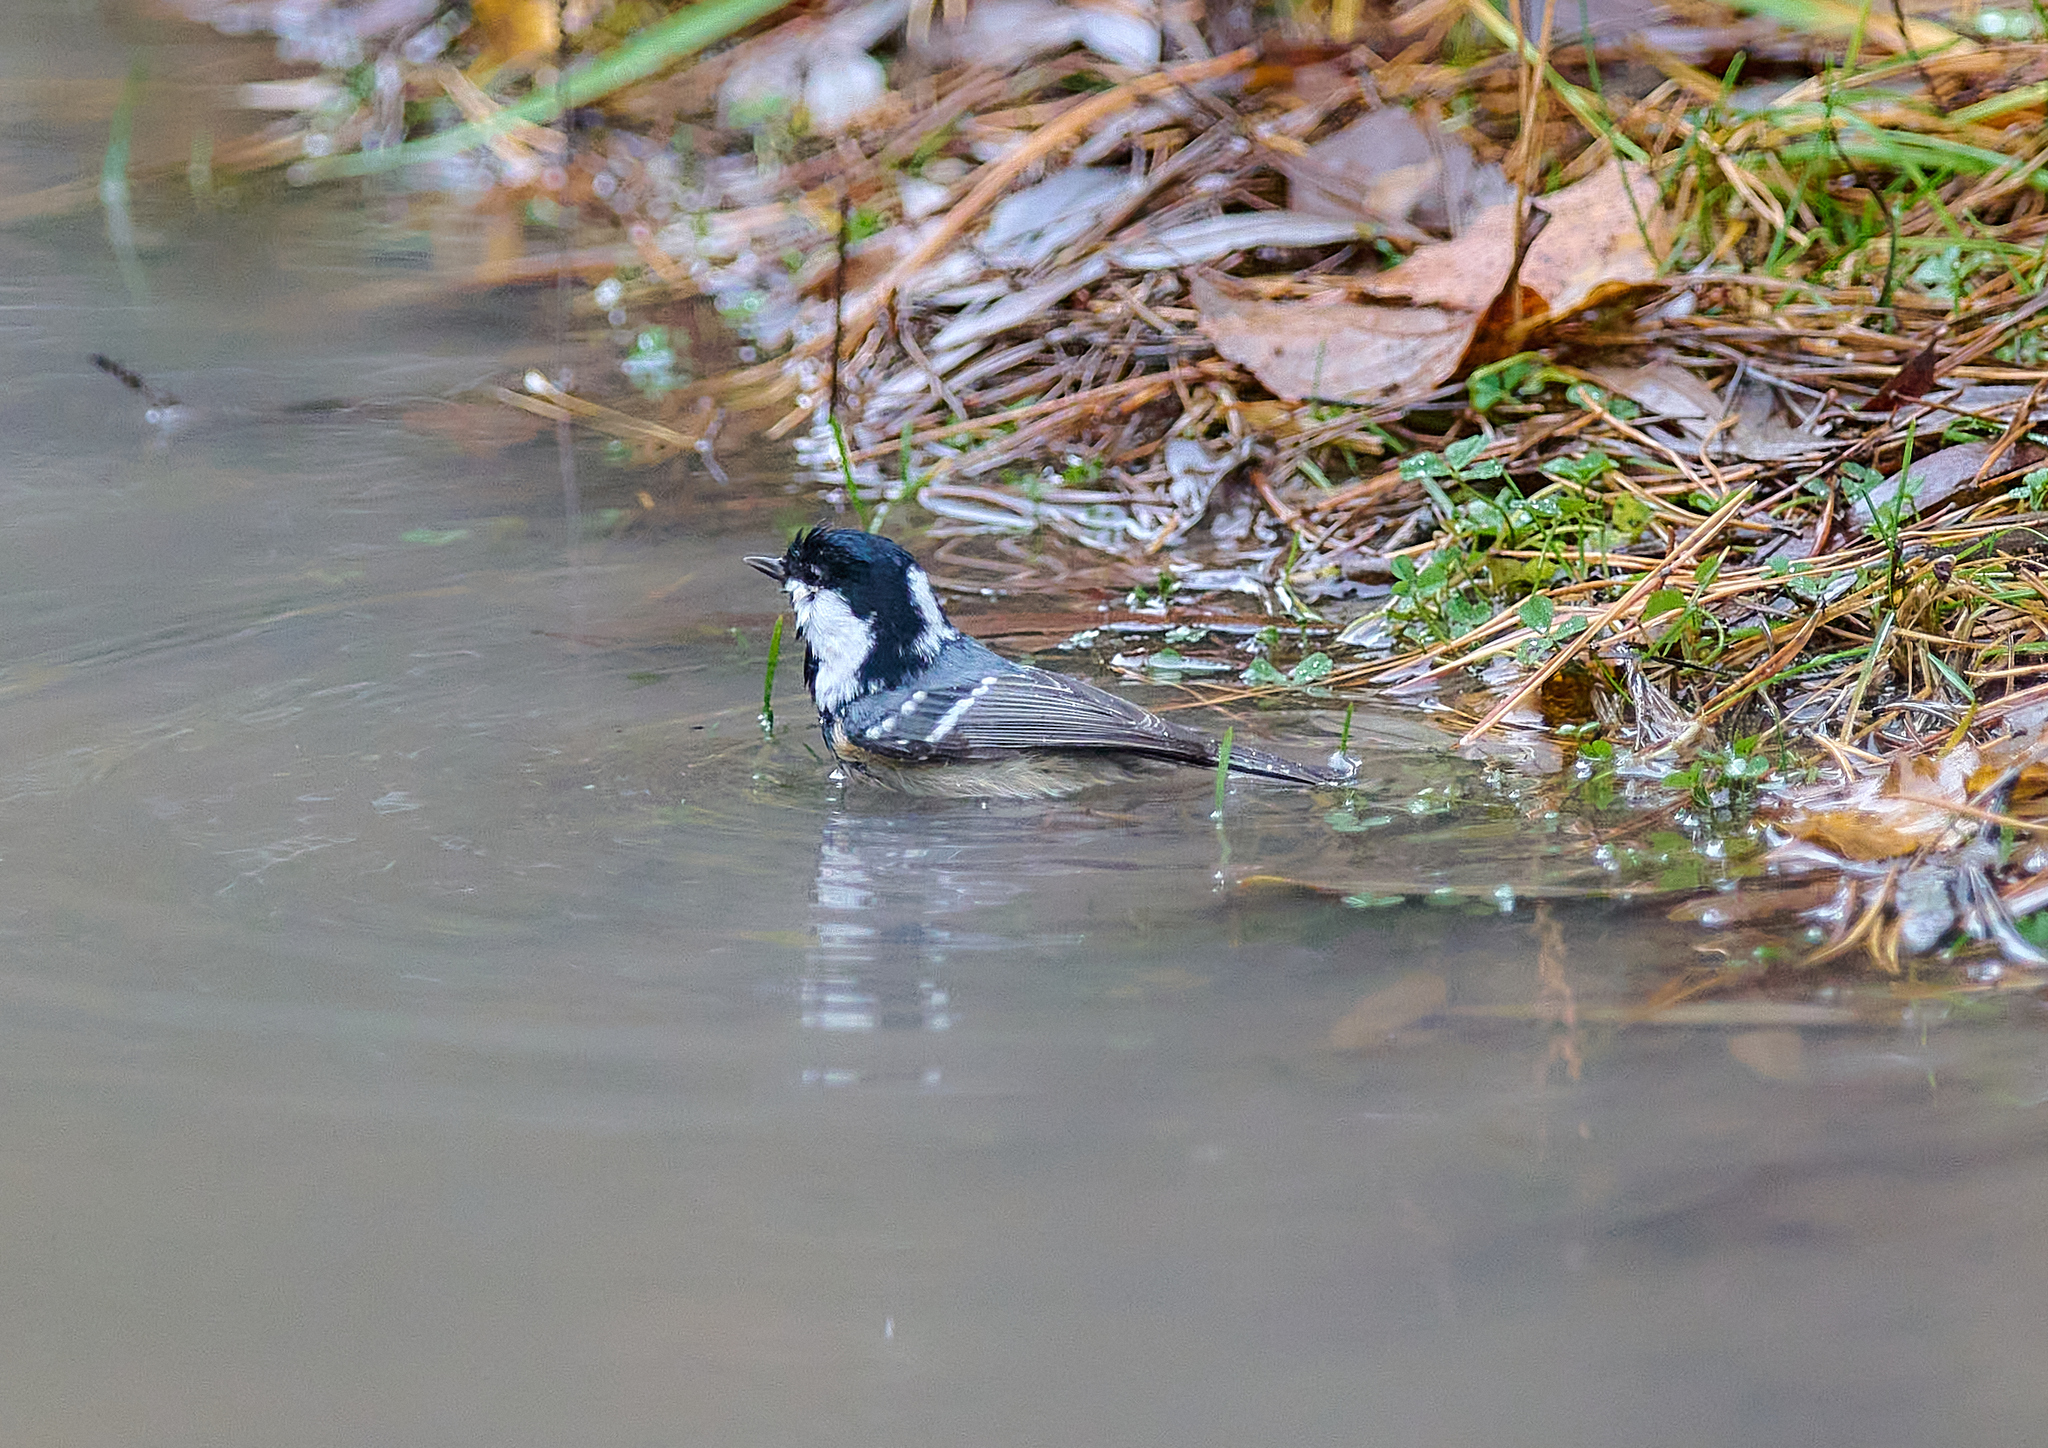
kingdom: Animalia
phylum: Chordata
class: Aves
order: Passeriformes
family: Paridae
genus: Periparus
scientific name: Periparus ater
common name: Coal tit
